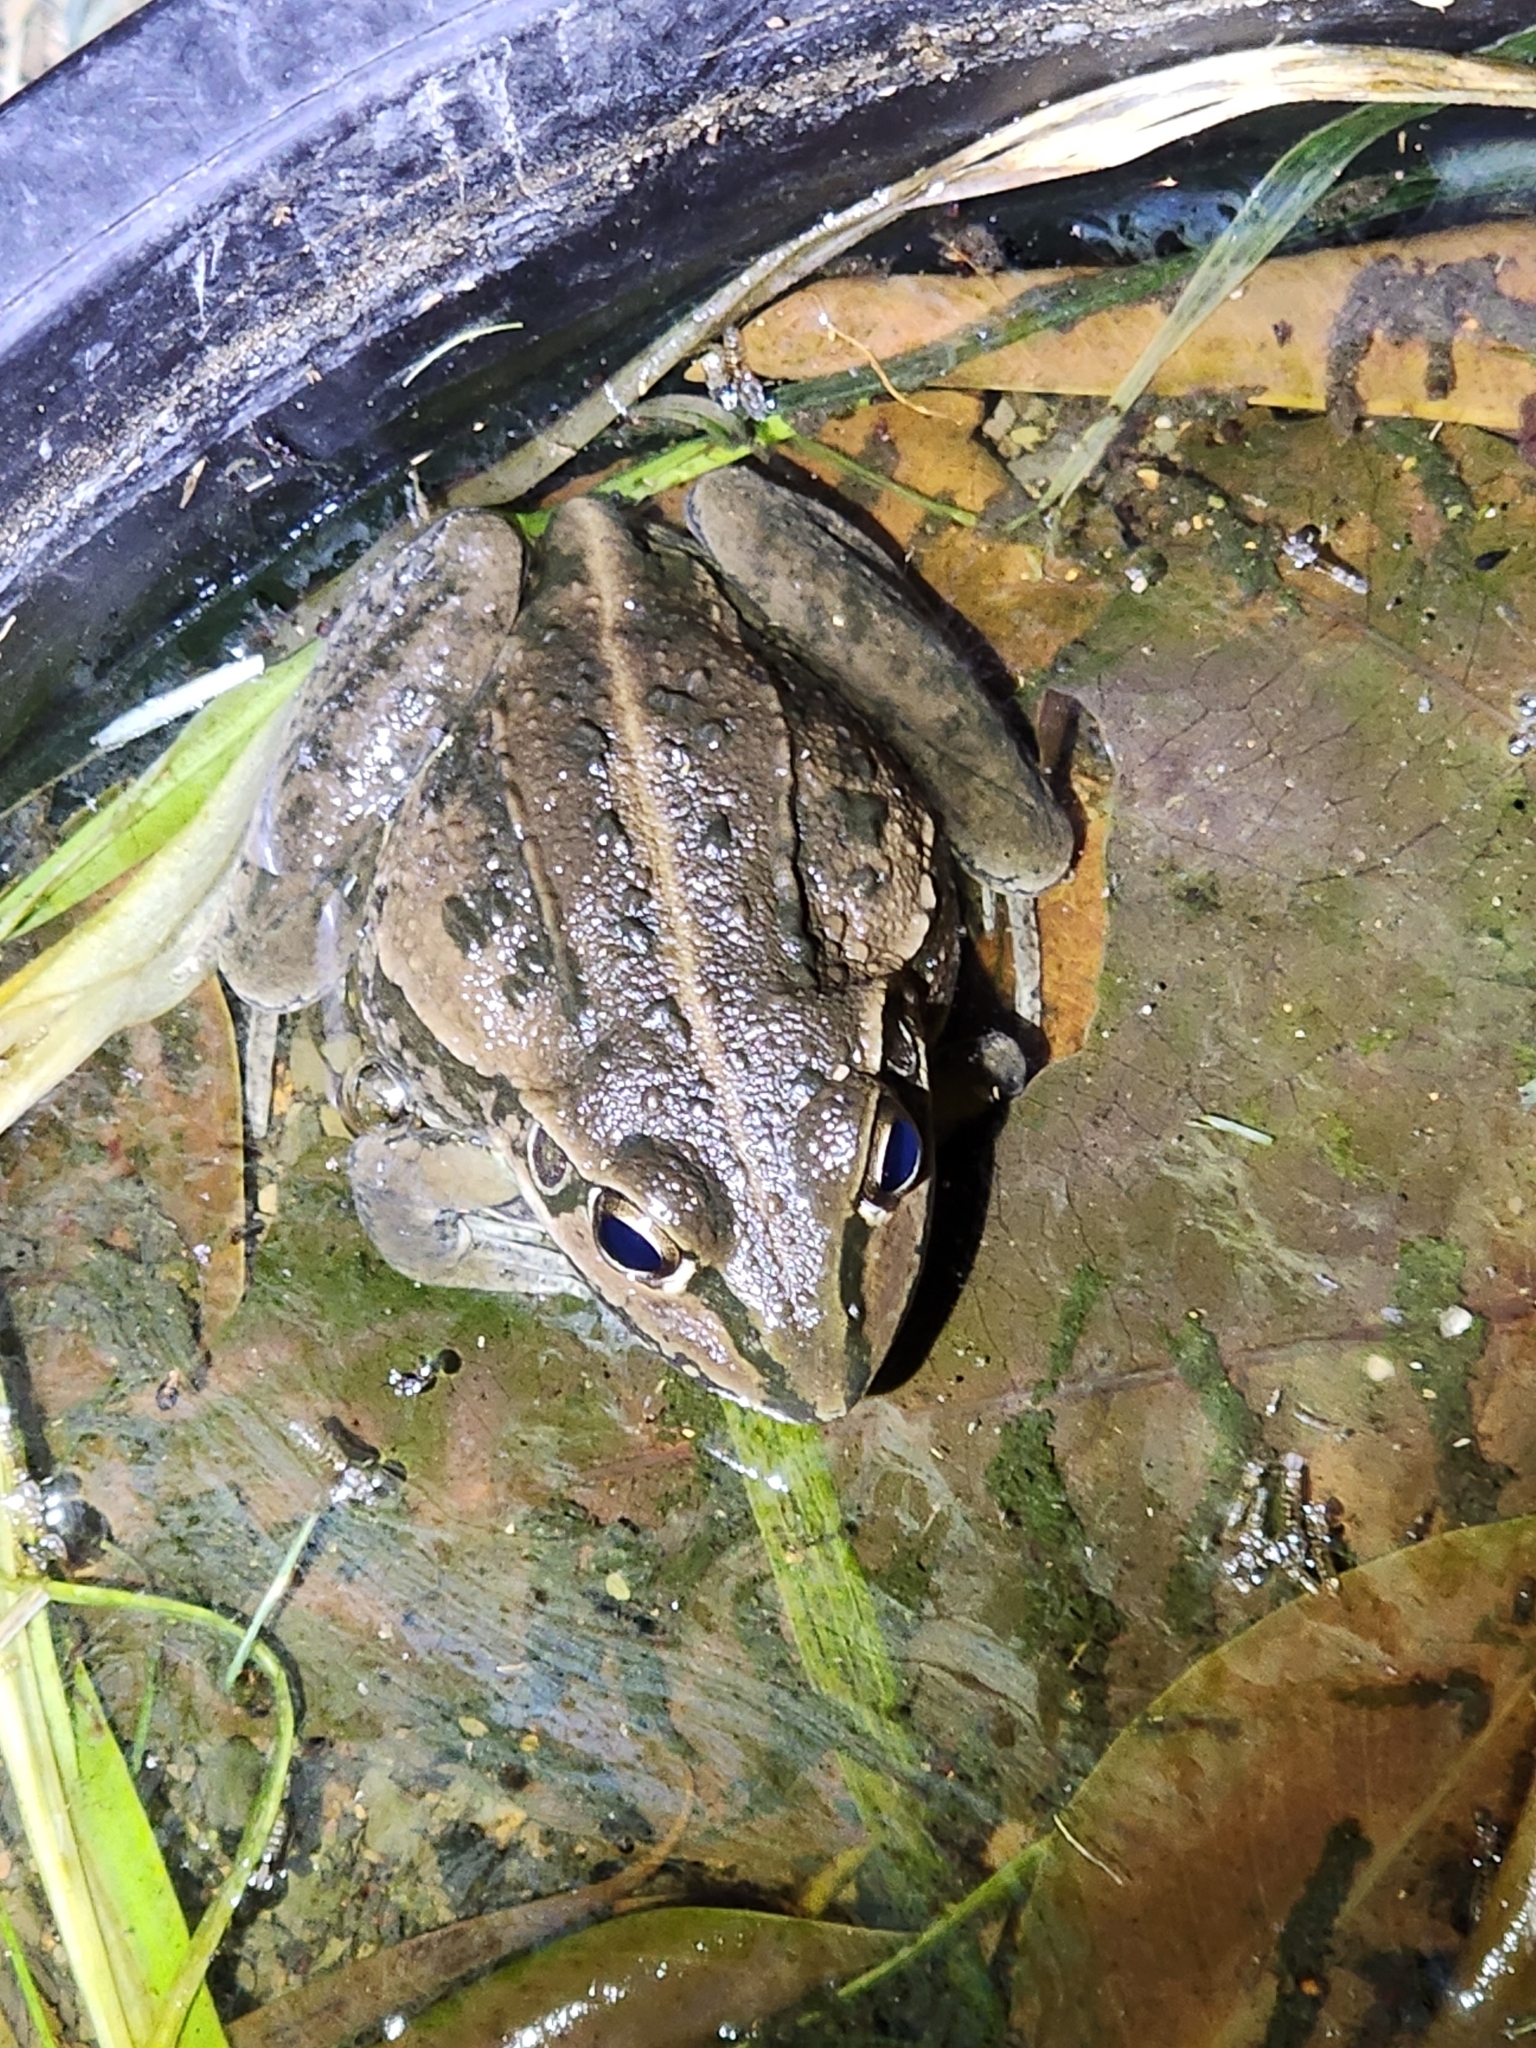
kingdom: Animalia
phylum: Chordata
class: Amphibia
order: Anura
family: Pelodryadidae
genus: Ranoidea
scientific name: Ranoidea alboguttata
